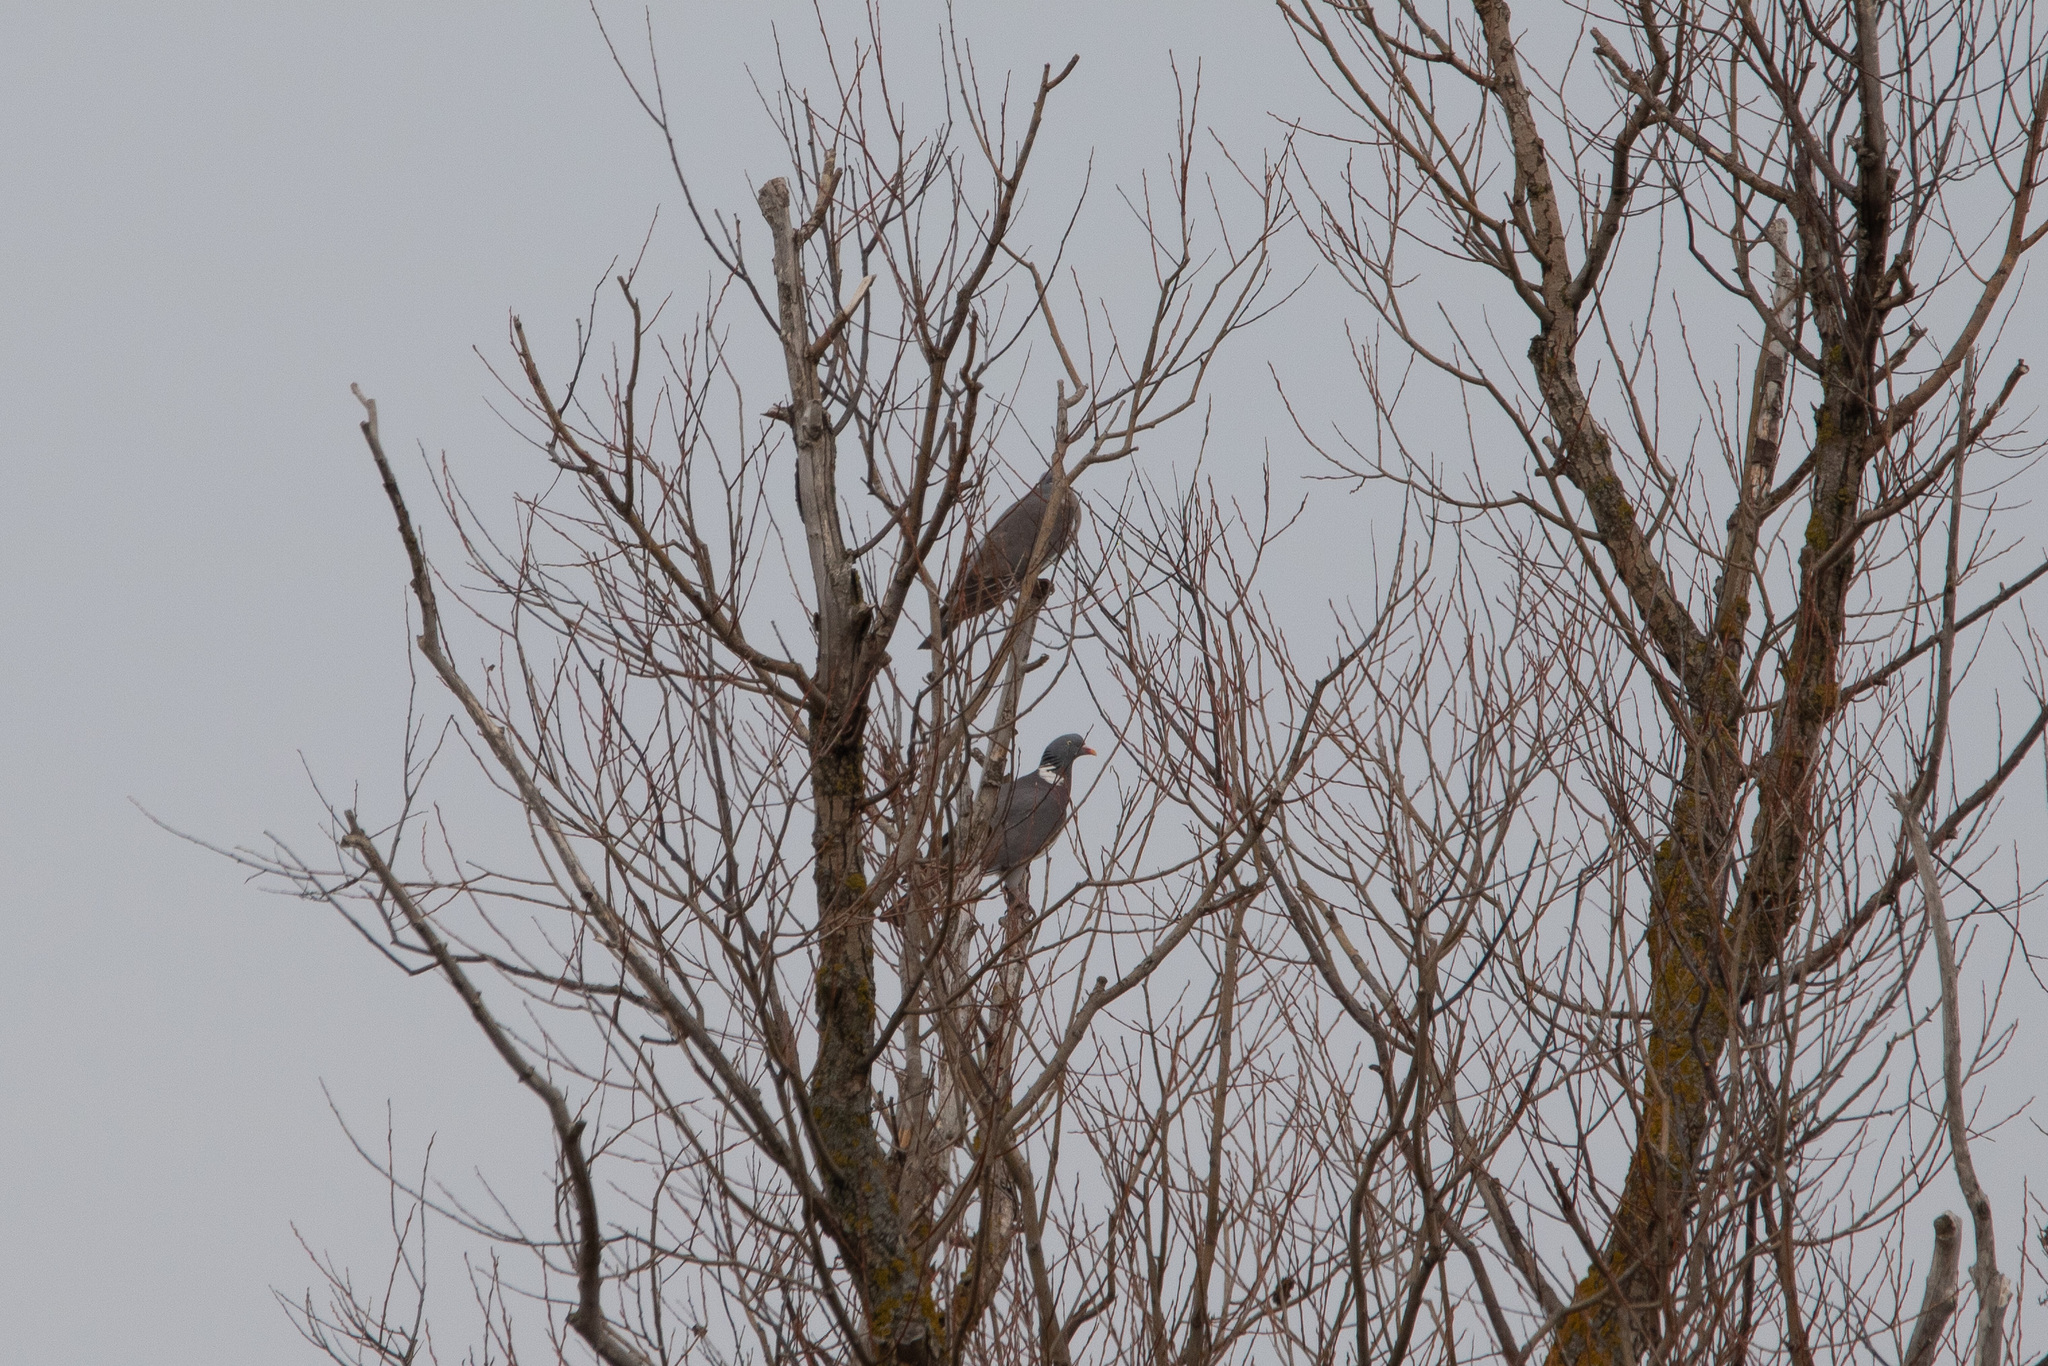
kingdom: Animalia
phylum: Chordata
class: Aves
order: Columbiformes
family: Columbidae
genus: Columba
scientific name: Columba palumbus
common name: Common wood pigeon
